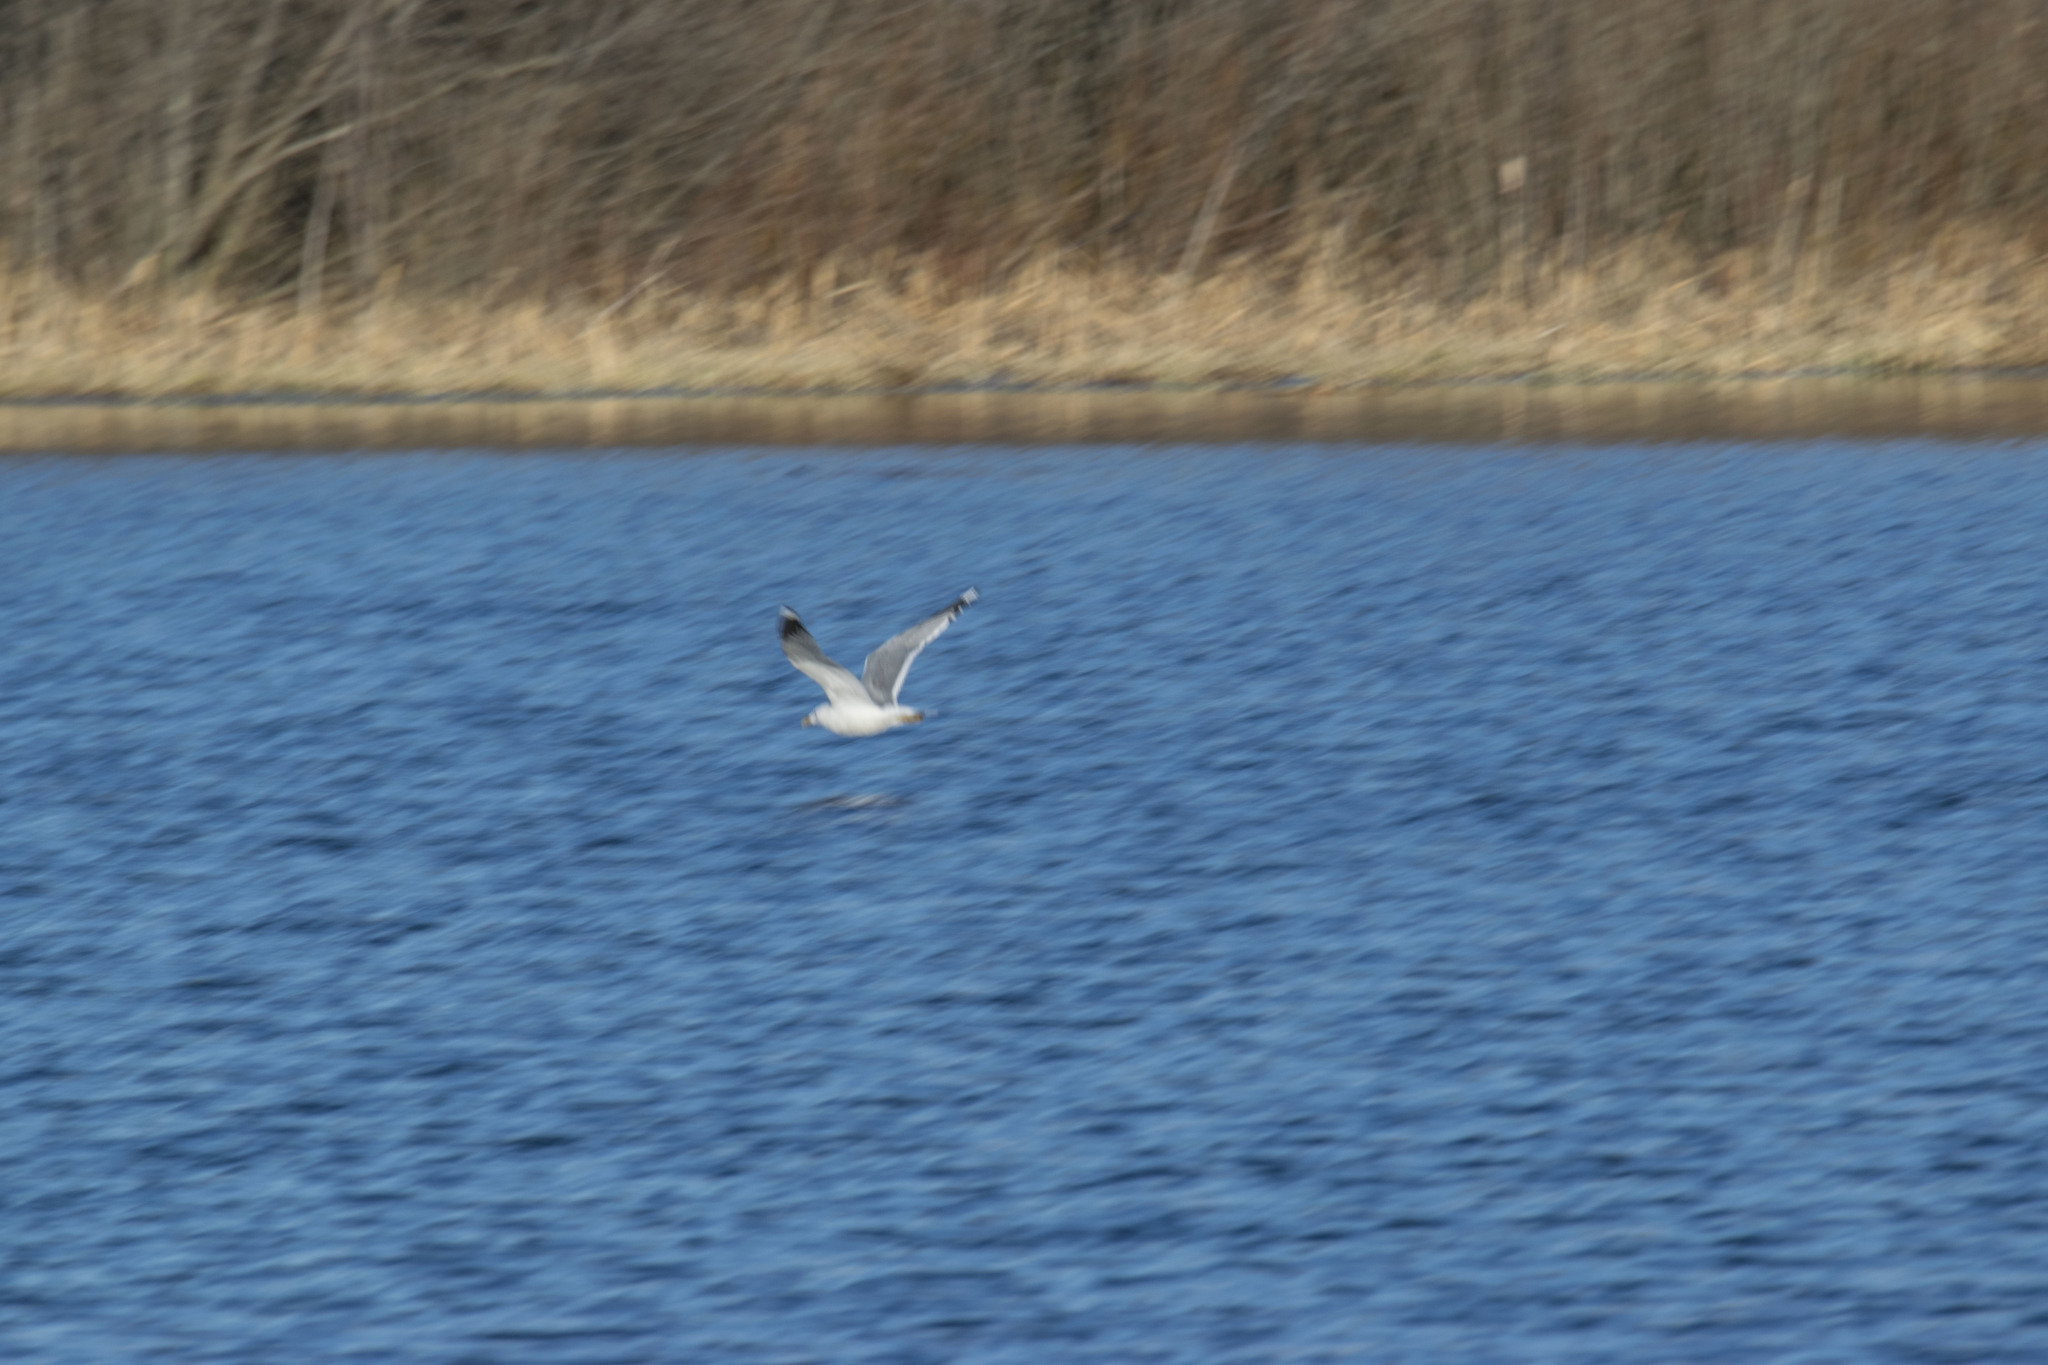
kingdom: Animalia
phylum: Chordata
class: Aves
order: Charadriiformes
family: Laridae
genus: Larus
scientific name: Larus argentatus
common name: Herring gull
